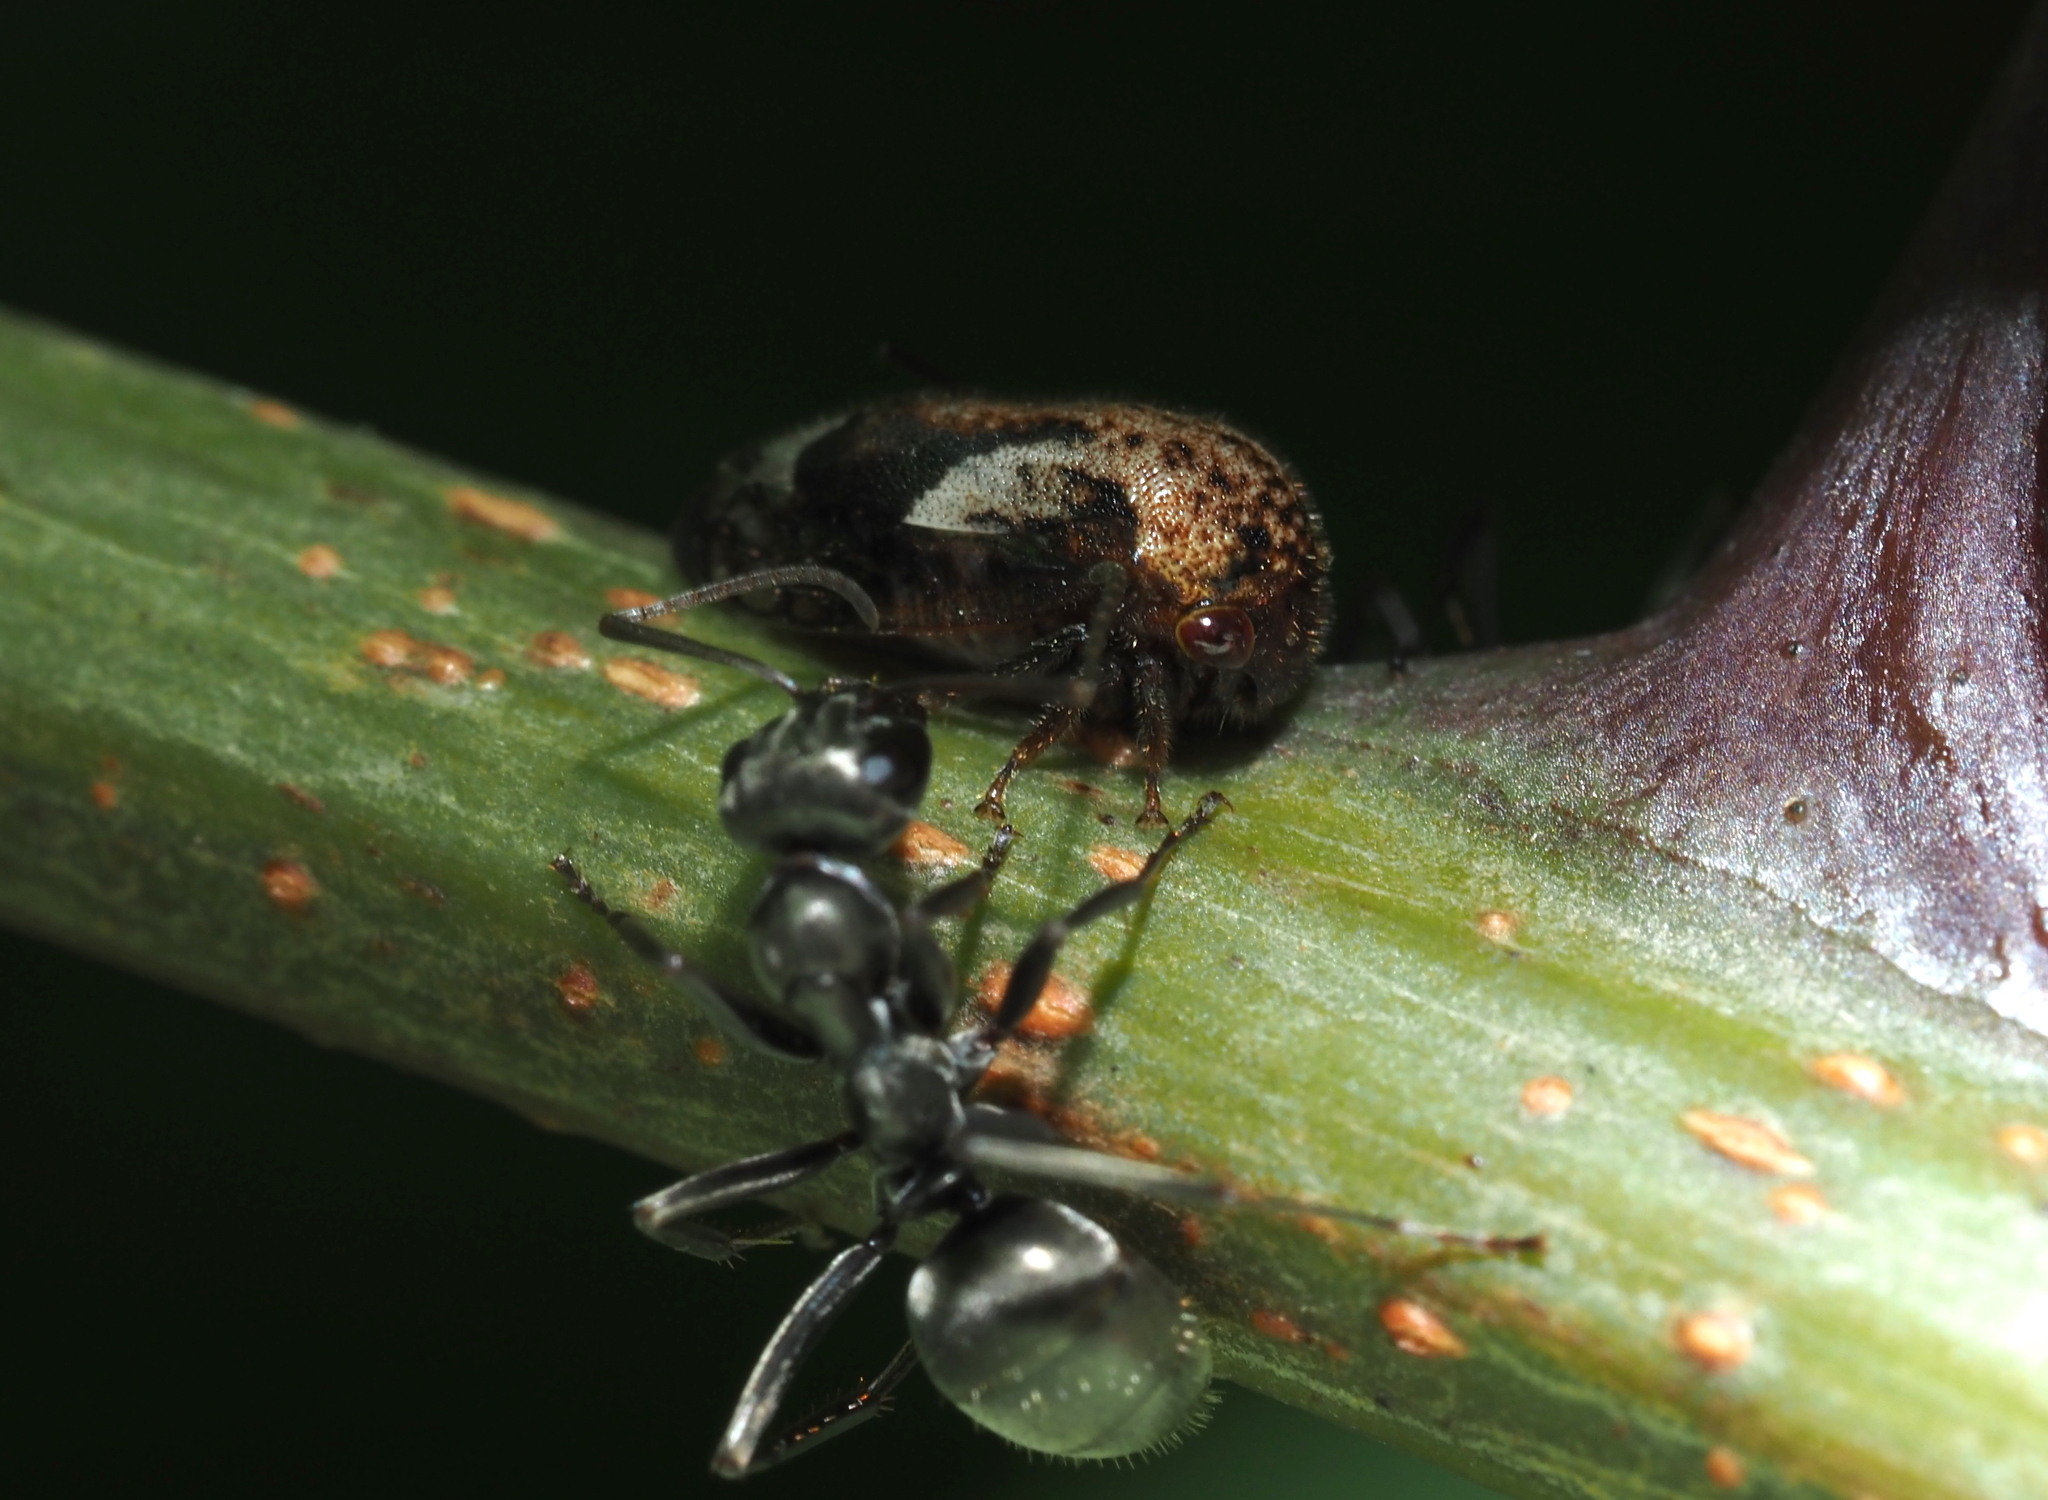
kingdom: Animalia
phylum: Arthropoda
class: Insecta
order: Hemiptera
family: Membracidae
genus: Vanduzea
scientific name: Vanduzea arquata
